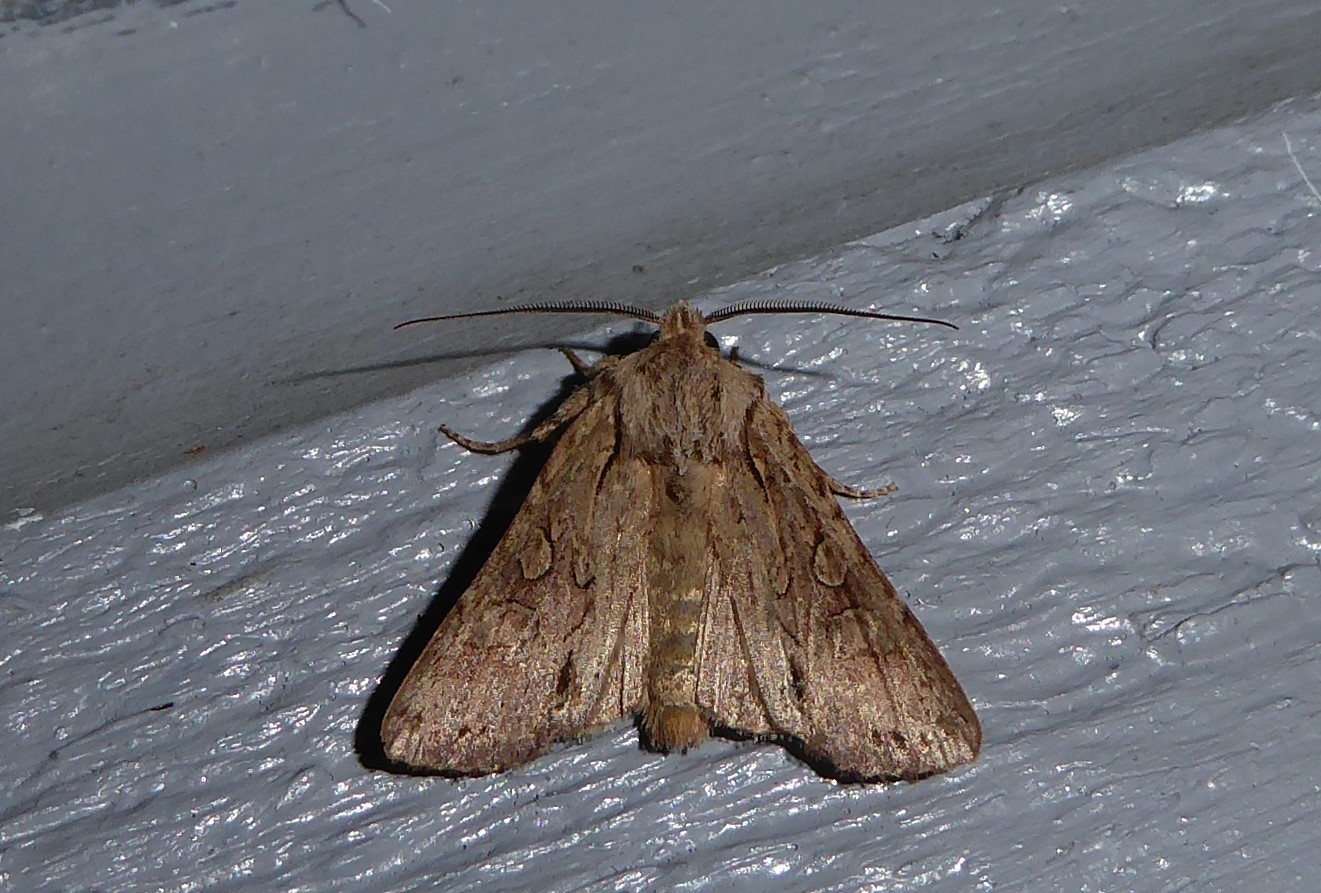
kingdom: Animalia
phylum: Arthropoda
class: Insecta
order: Lepidoptera
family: Noctuidae
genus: Ichneutica
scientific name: Ichneutica
